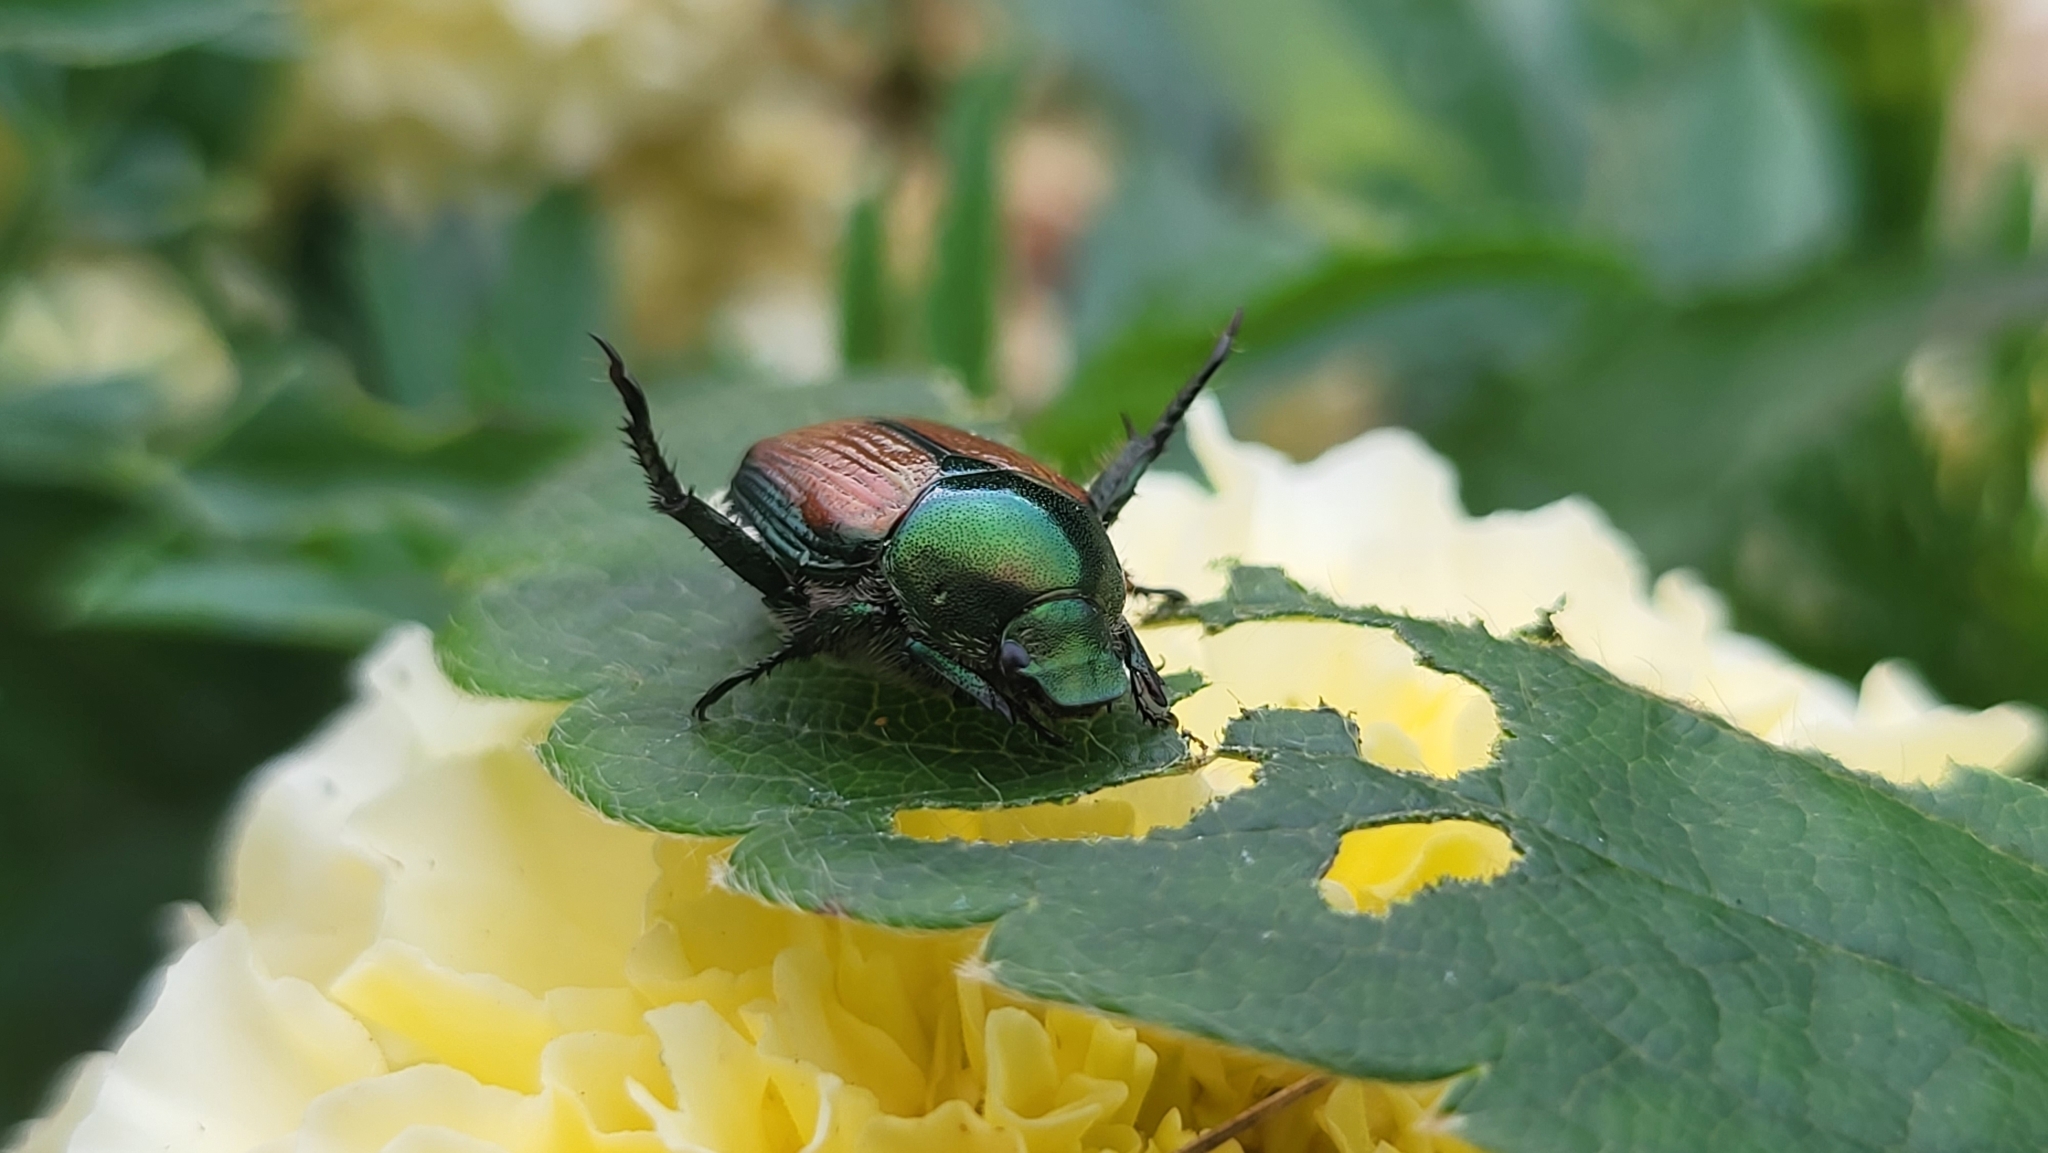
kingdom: Animalia
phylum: Arthropoda
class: Insecta
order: Coleoptera
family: Scarabaeidae
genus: Popillia
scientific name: Popillia japonica
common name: Japanese beetle
